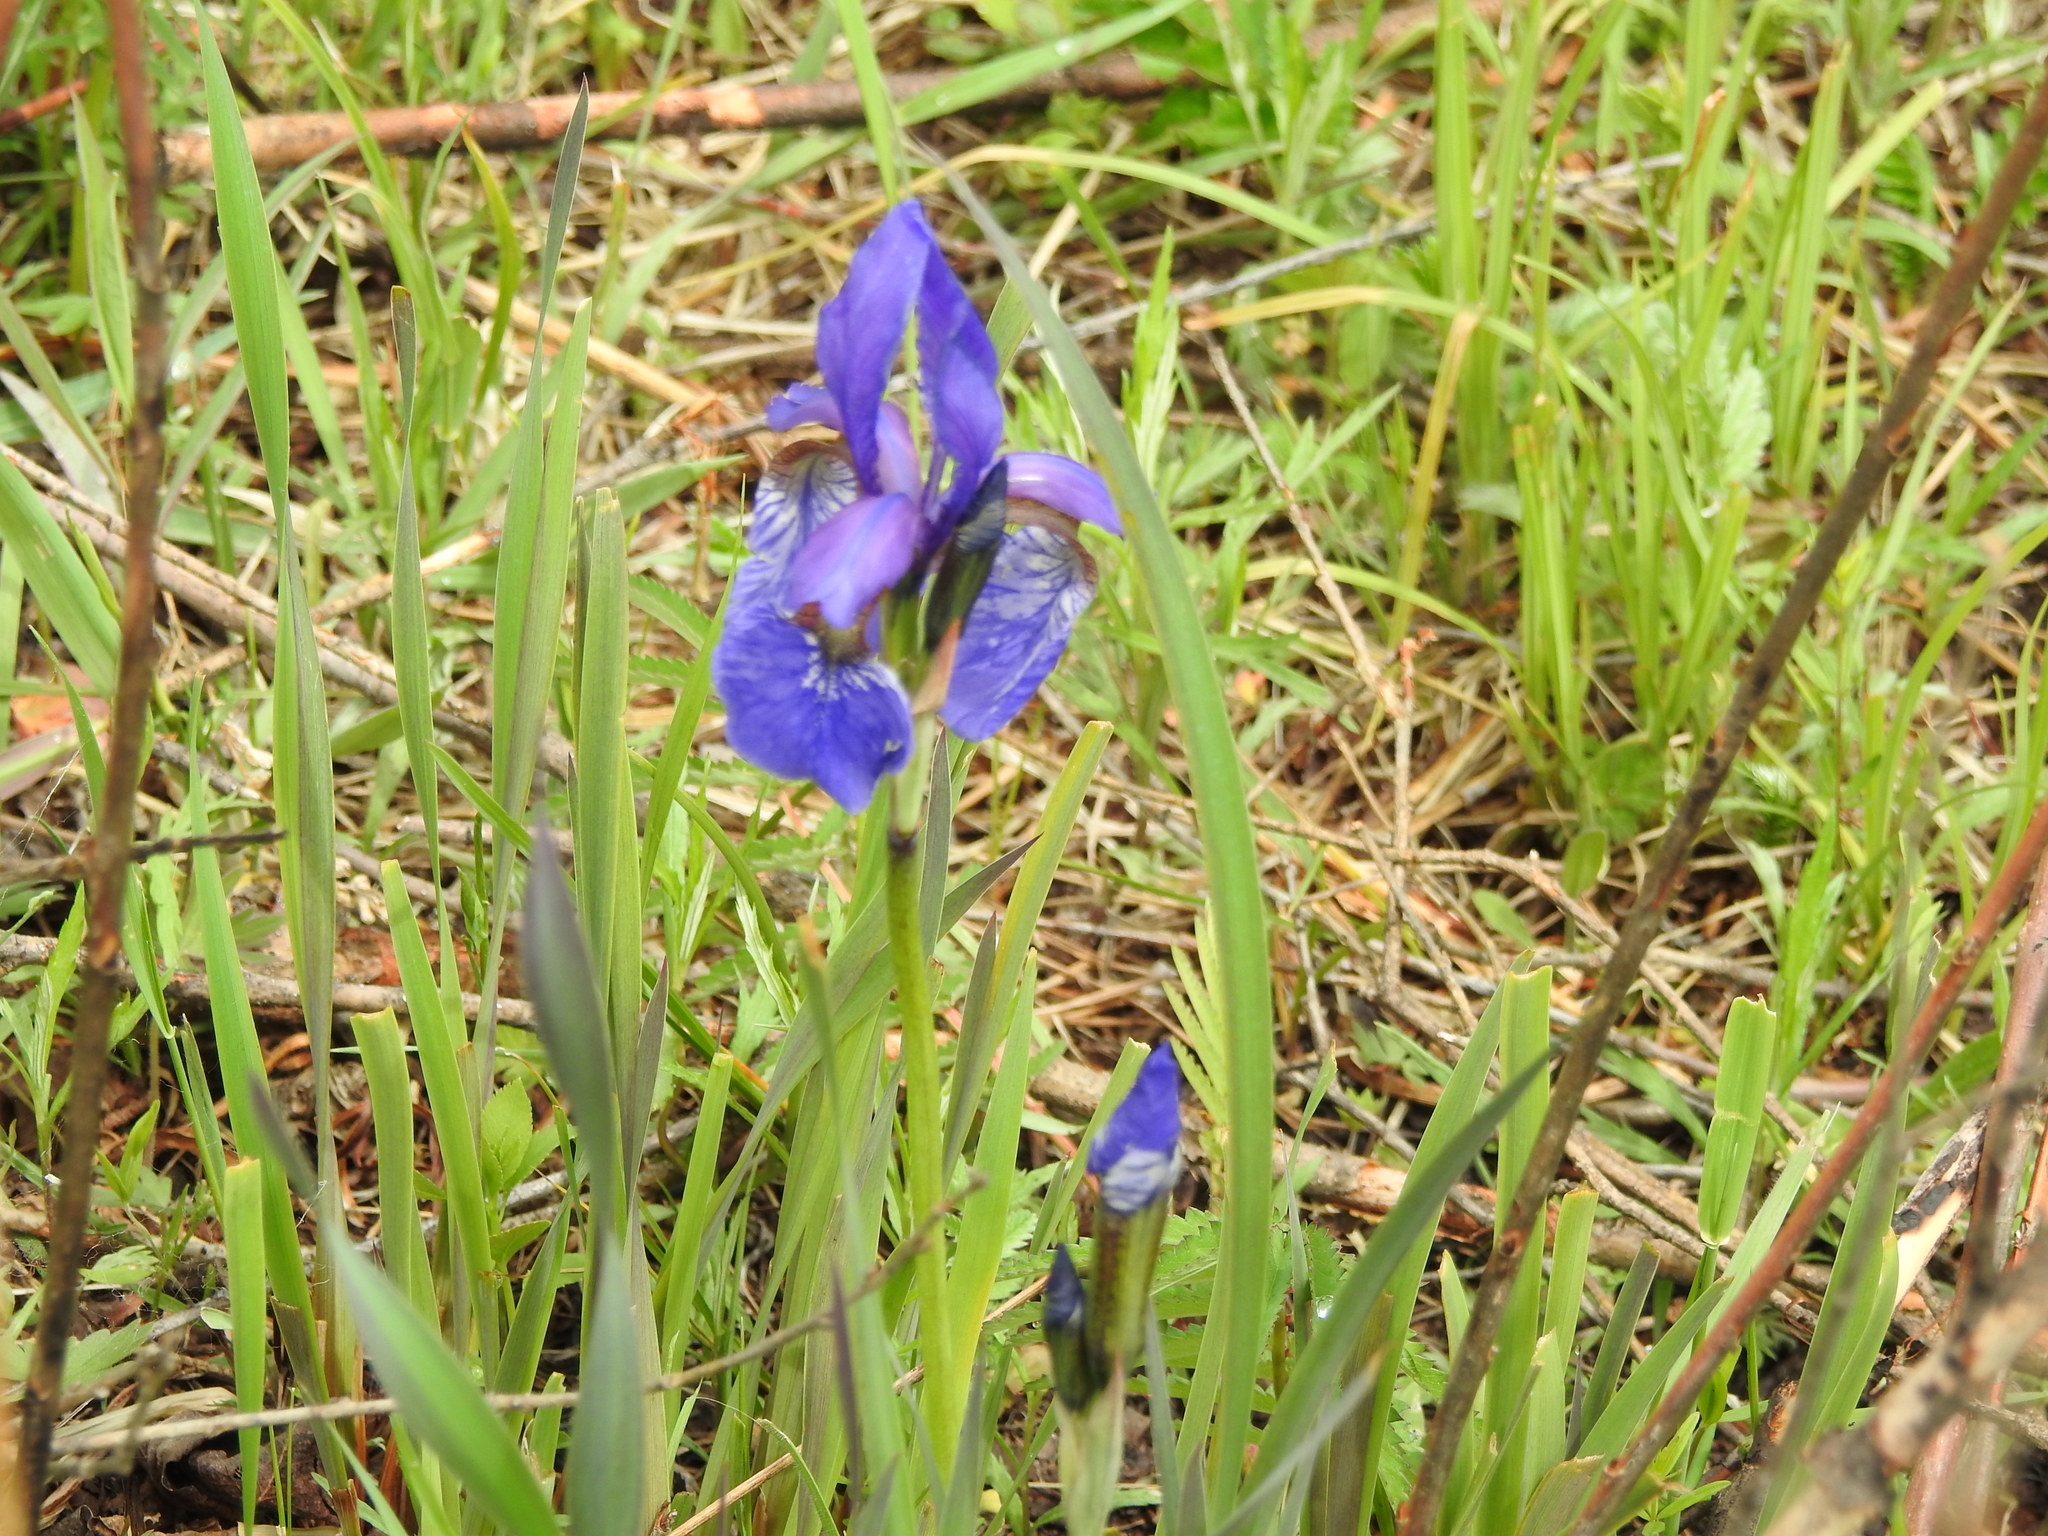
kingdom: Plantae
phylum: Tracheophyta
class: Liliopsida
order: Asparagales
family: Iridaceae
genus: Iris
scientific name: Iris sanguinea
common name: Blood iris
